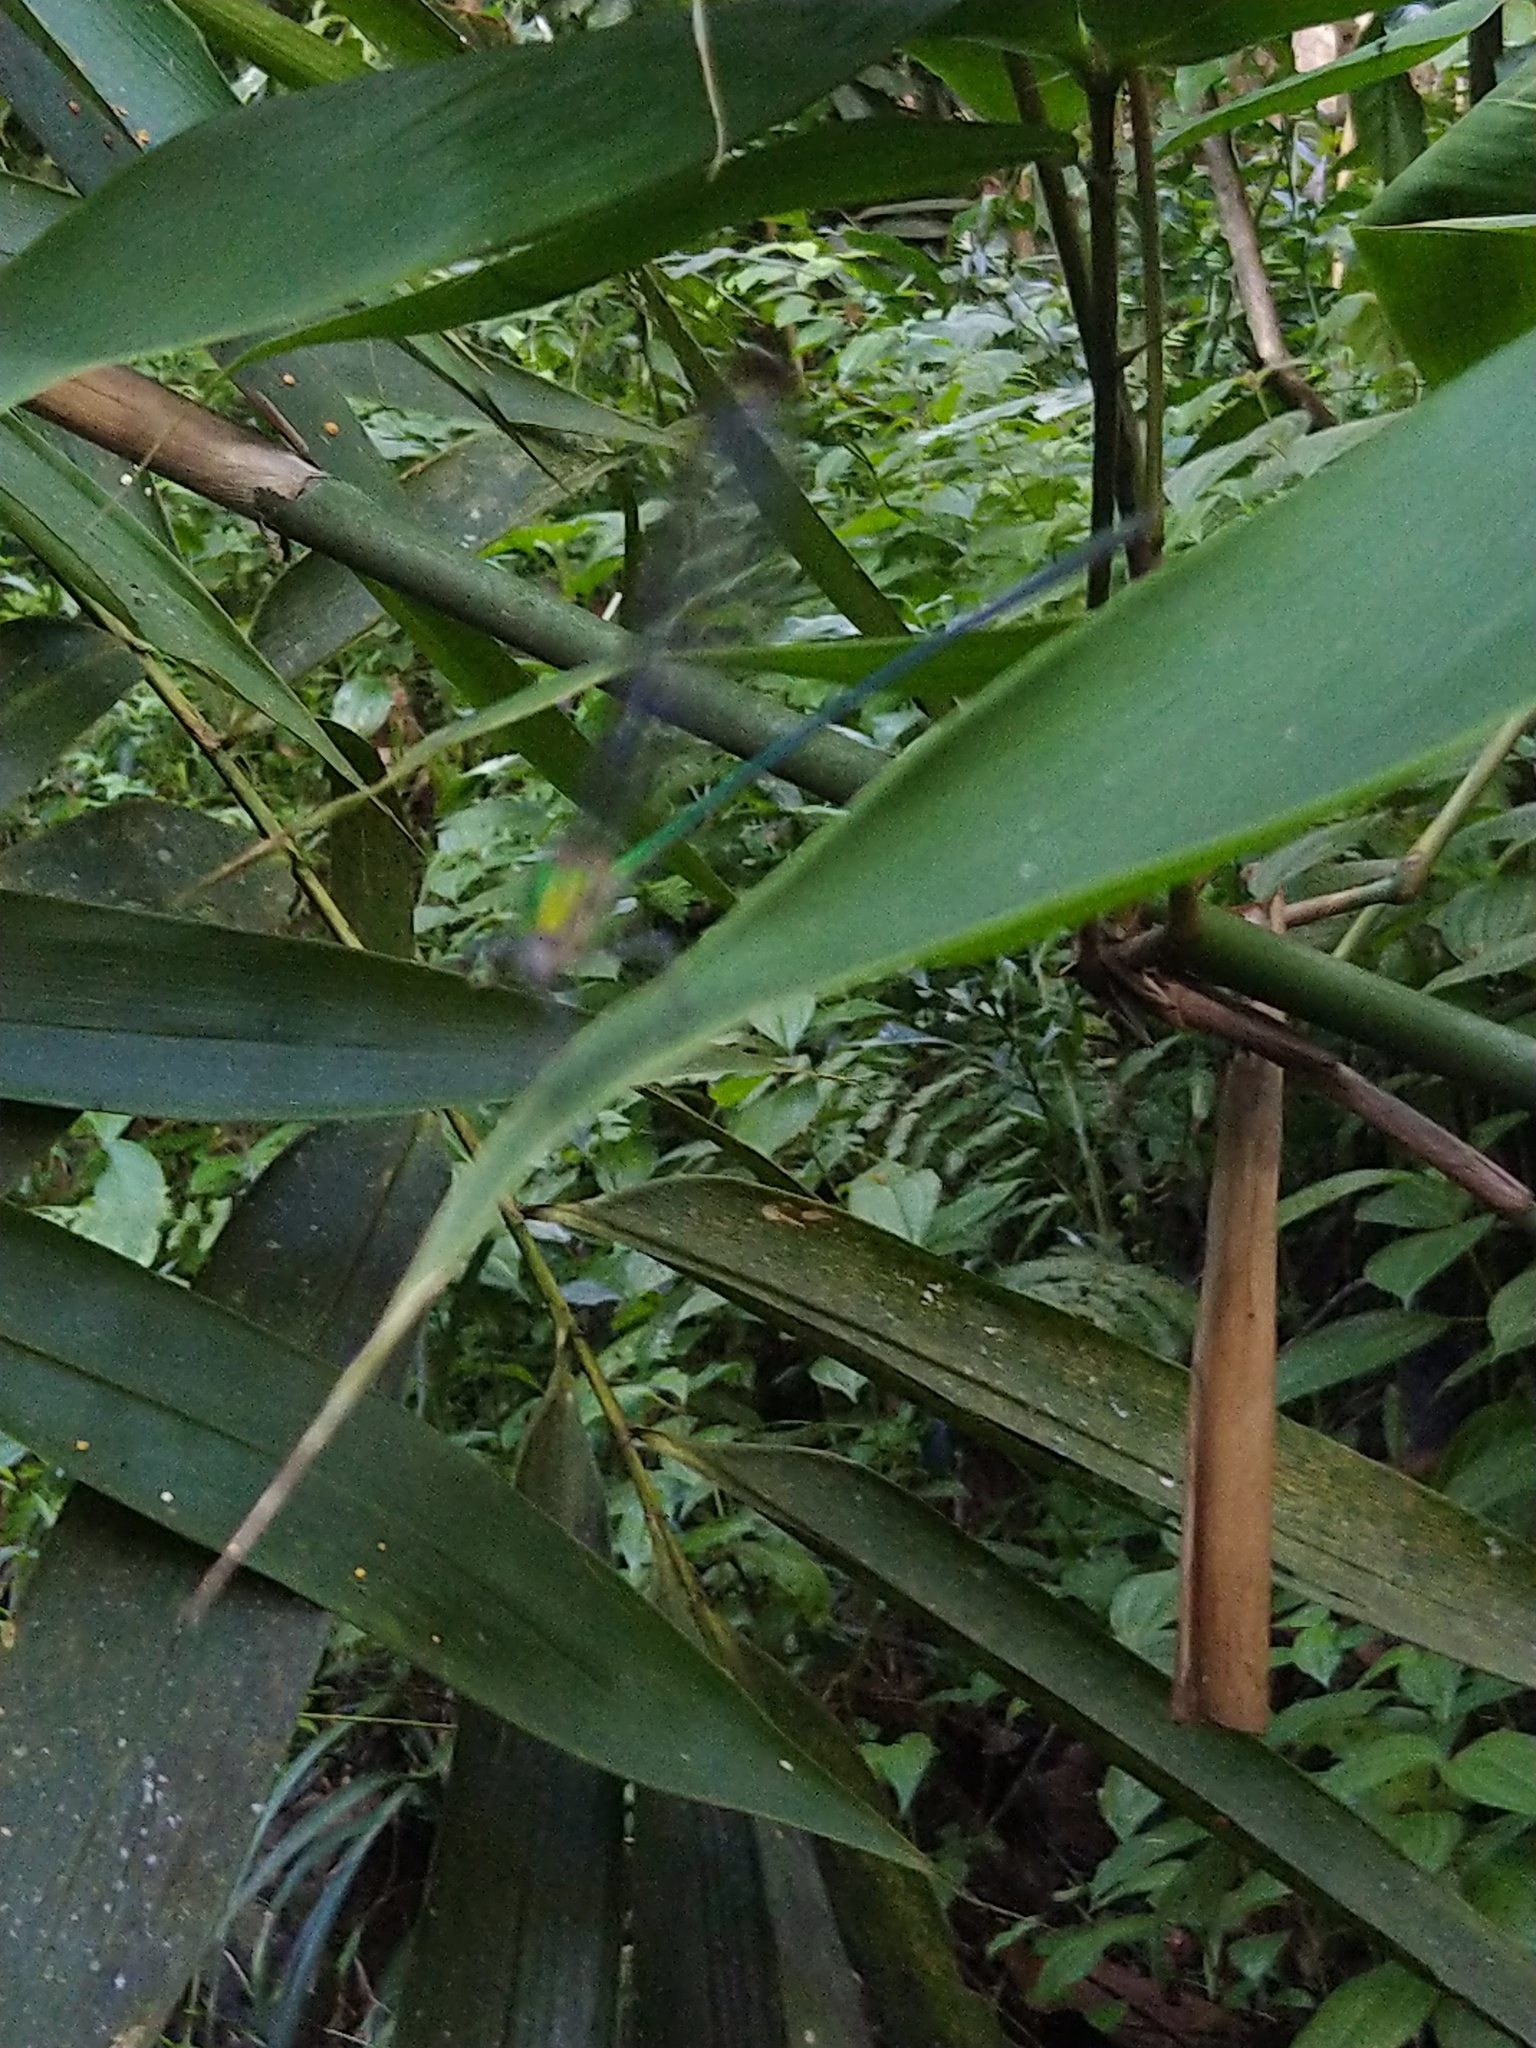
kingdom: Animalia
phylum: Arthropoda
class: Insecta
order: Odonata
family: Calopterygidae
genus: Vestalis
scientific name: Vestalis apicalis
